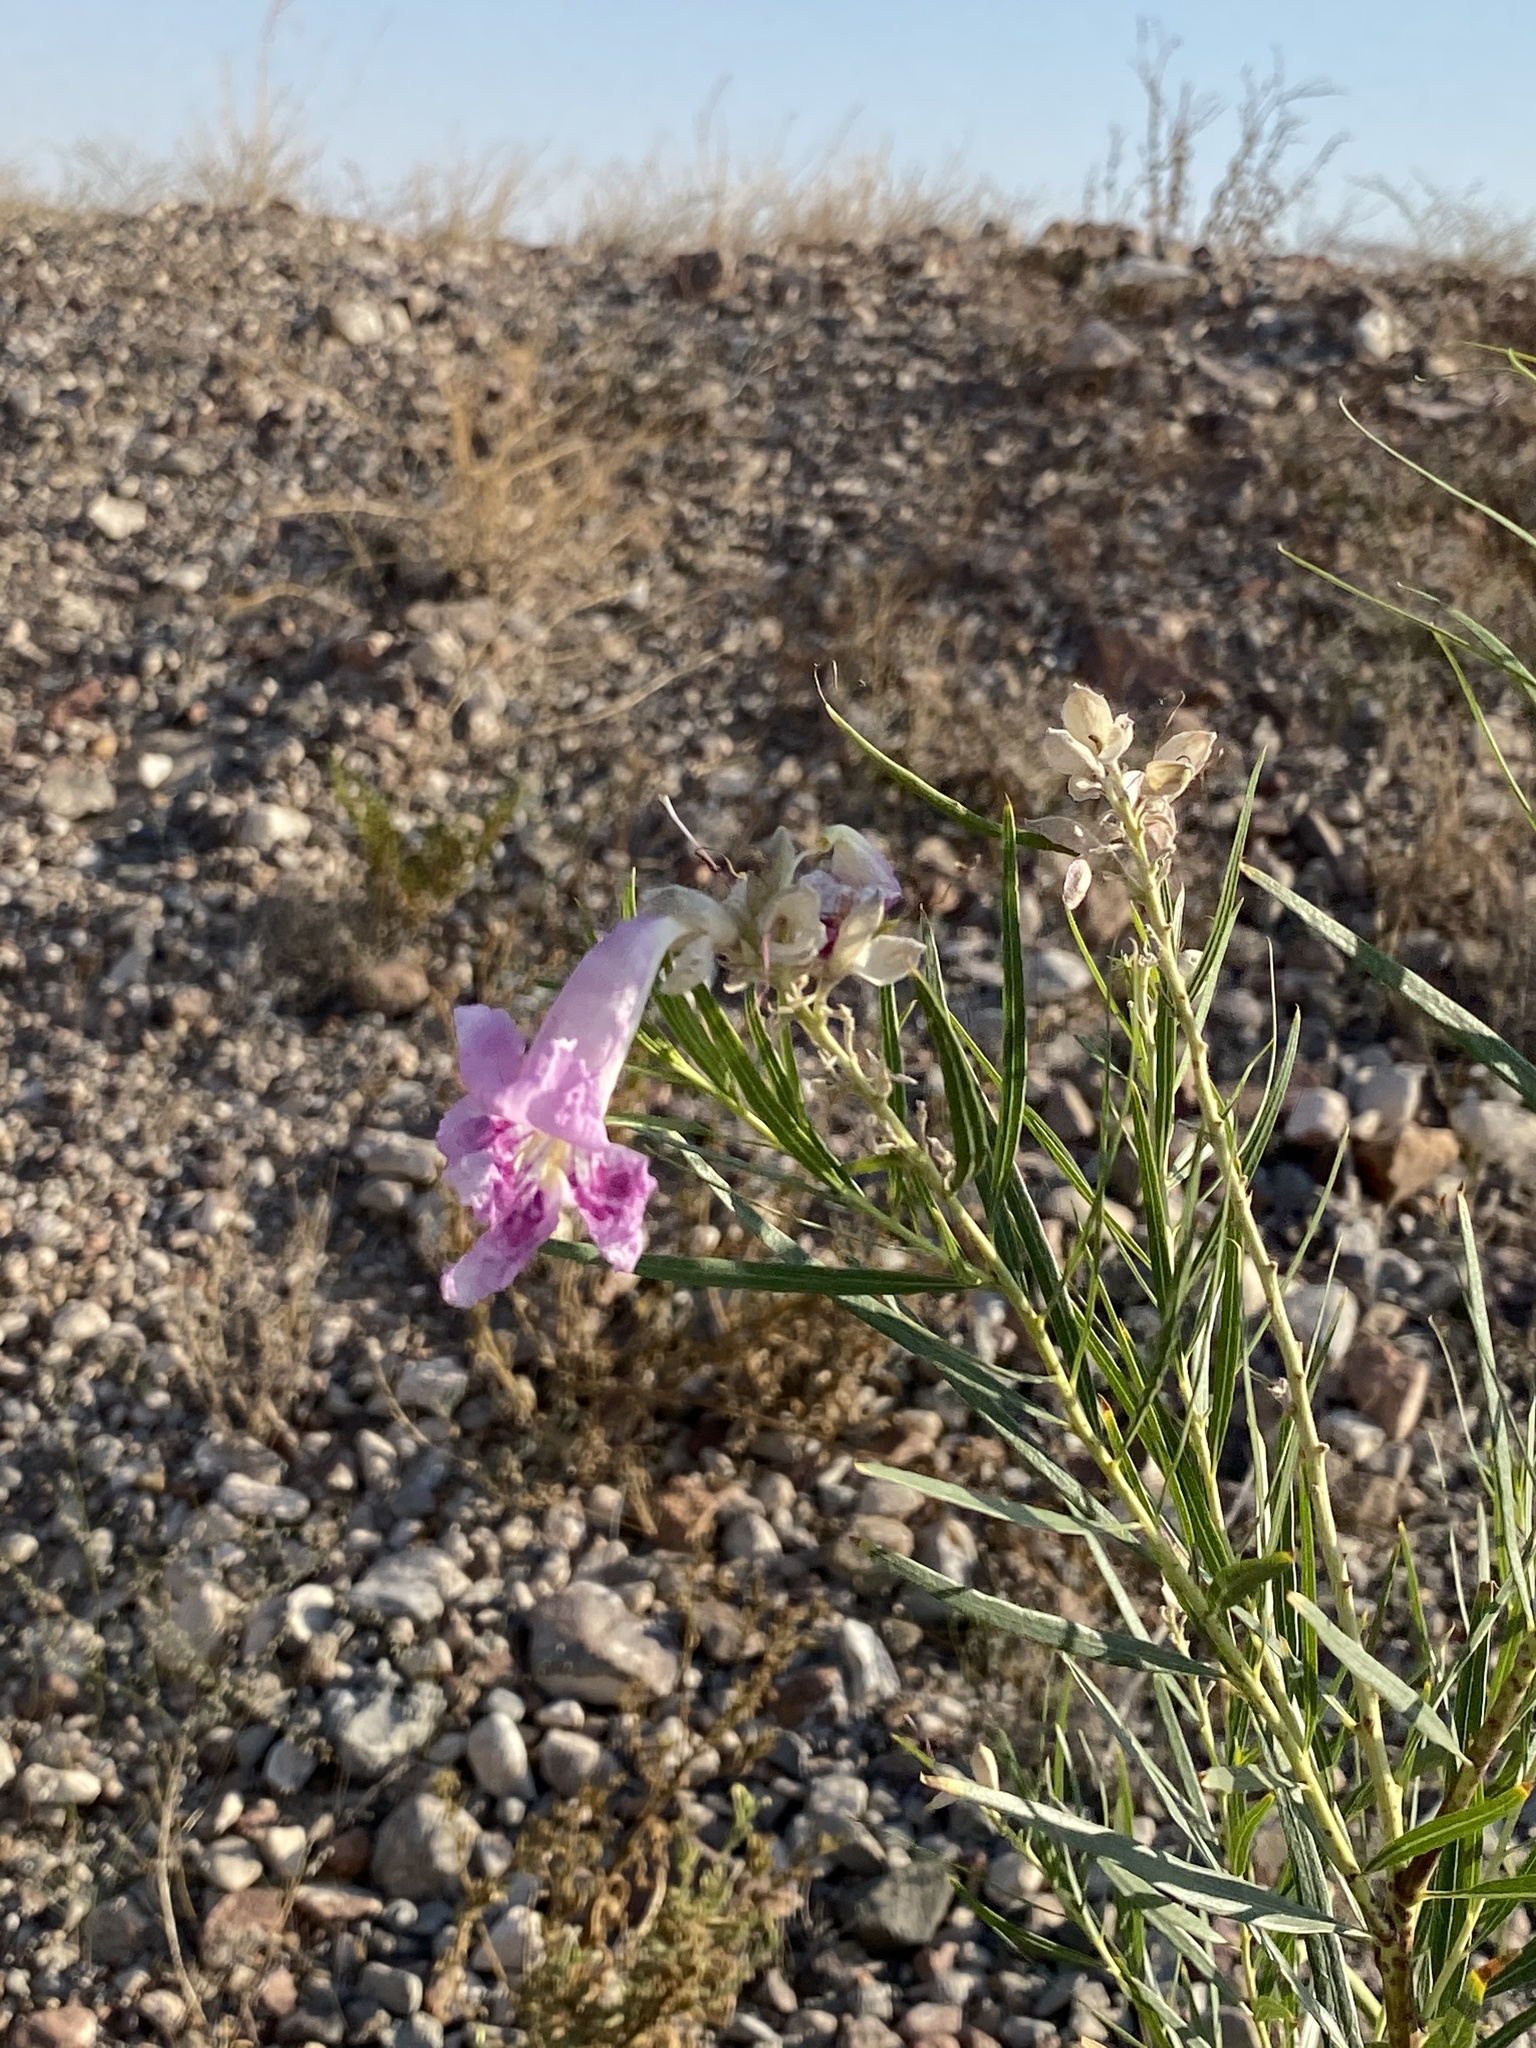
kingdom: Plantae
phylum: Tracheophyta
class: Magnoliopsida
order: Lamiales
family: Bignoniaceae
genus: Chilopsis
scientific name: Chilopsis linearis
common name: Desert-willow
